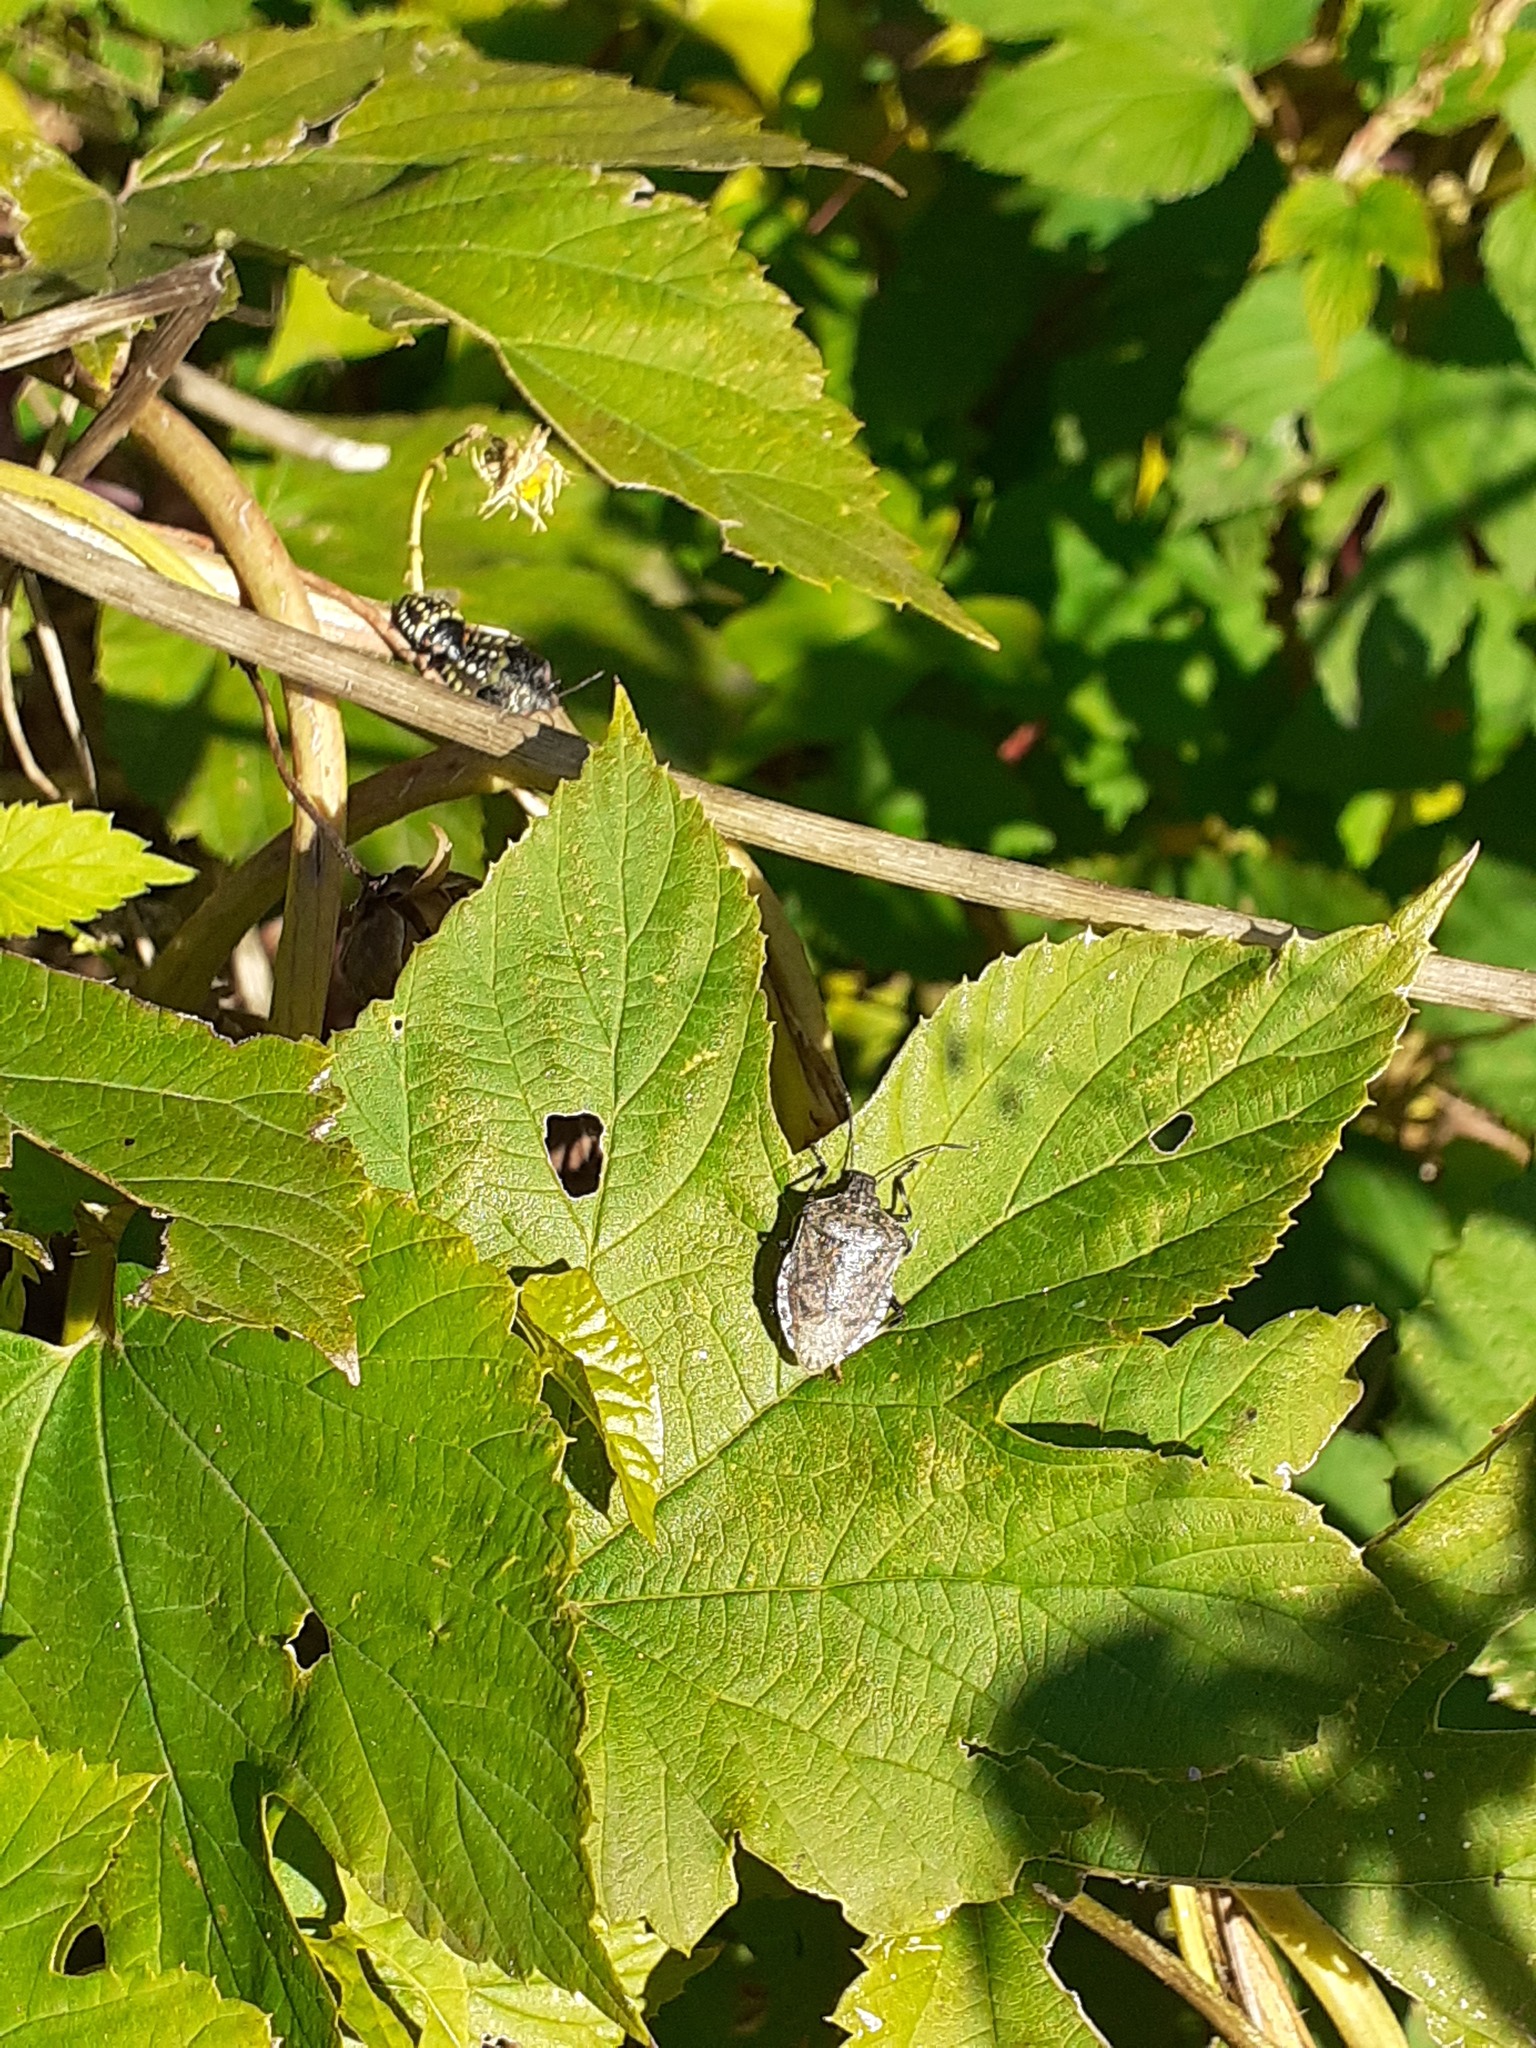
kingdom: Animalia
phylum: Arthropoda
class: Insecta
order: Hemiptera
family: Pentatomidae
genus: Halyomorpha
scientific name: Halyomorpha halys
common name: Brown marmorated stink bug
